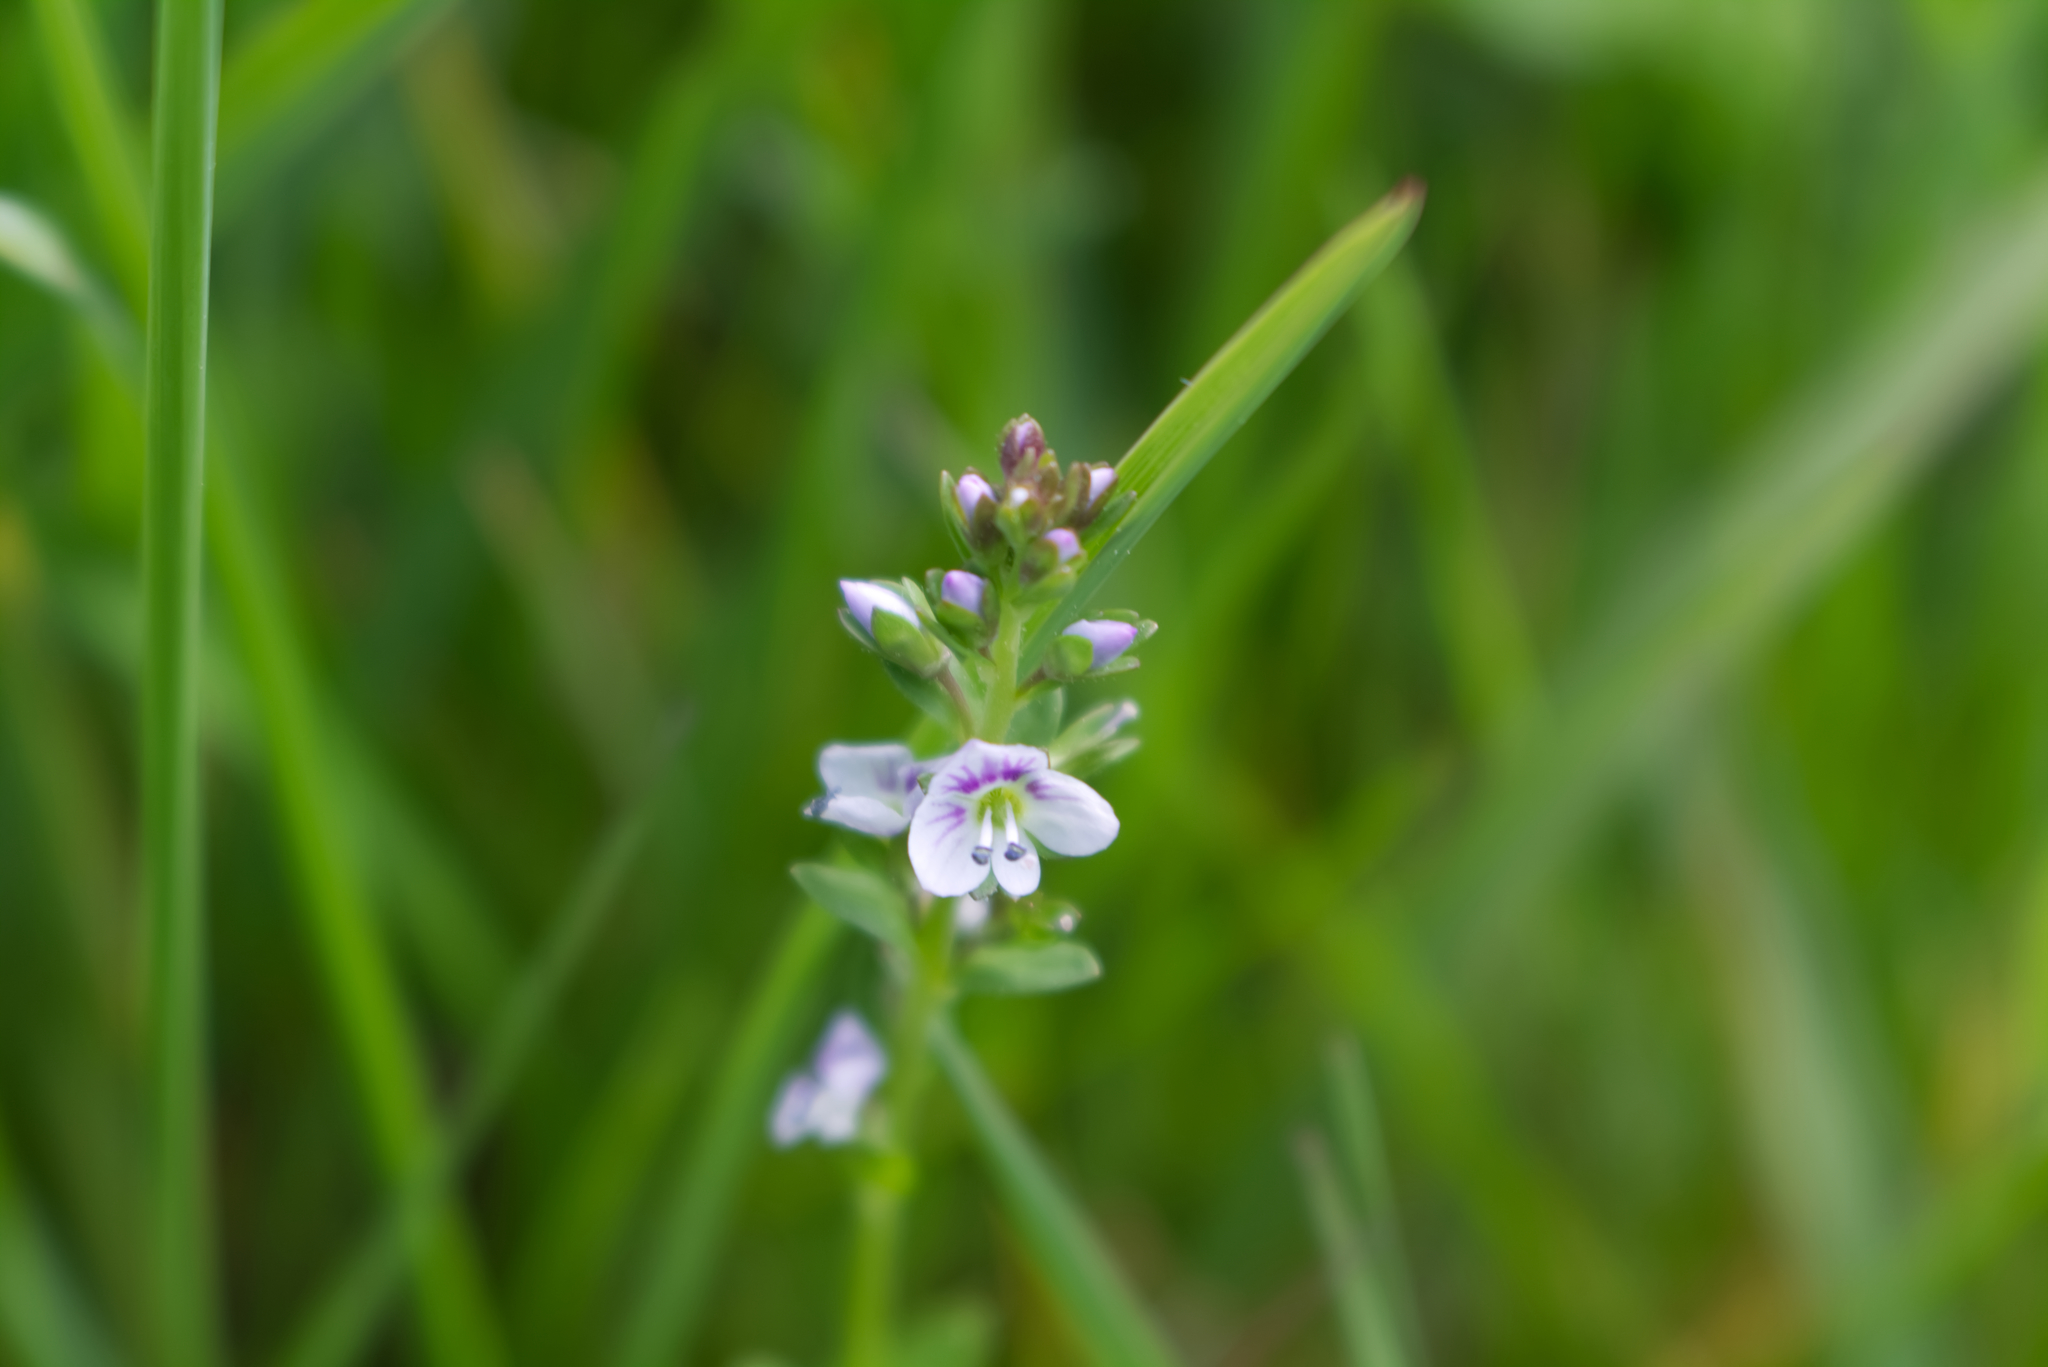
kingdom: Plantae
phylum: Tracheophyta
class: Magnoliopsida
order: Lamiales
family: Plantaginaceae
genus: Veronica
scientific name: Veronica serpyllifolia
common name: Thyme-leaved speedwell
